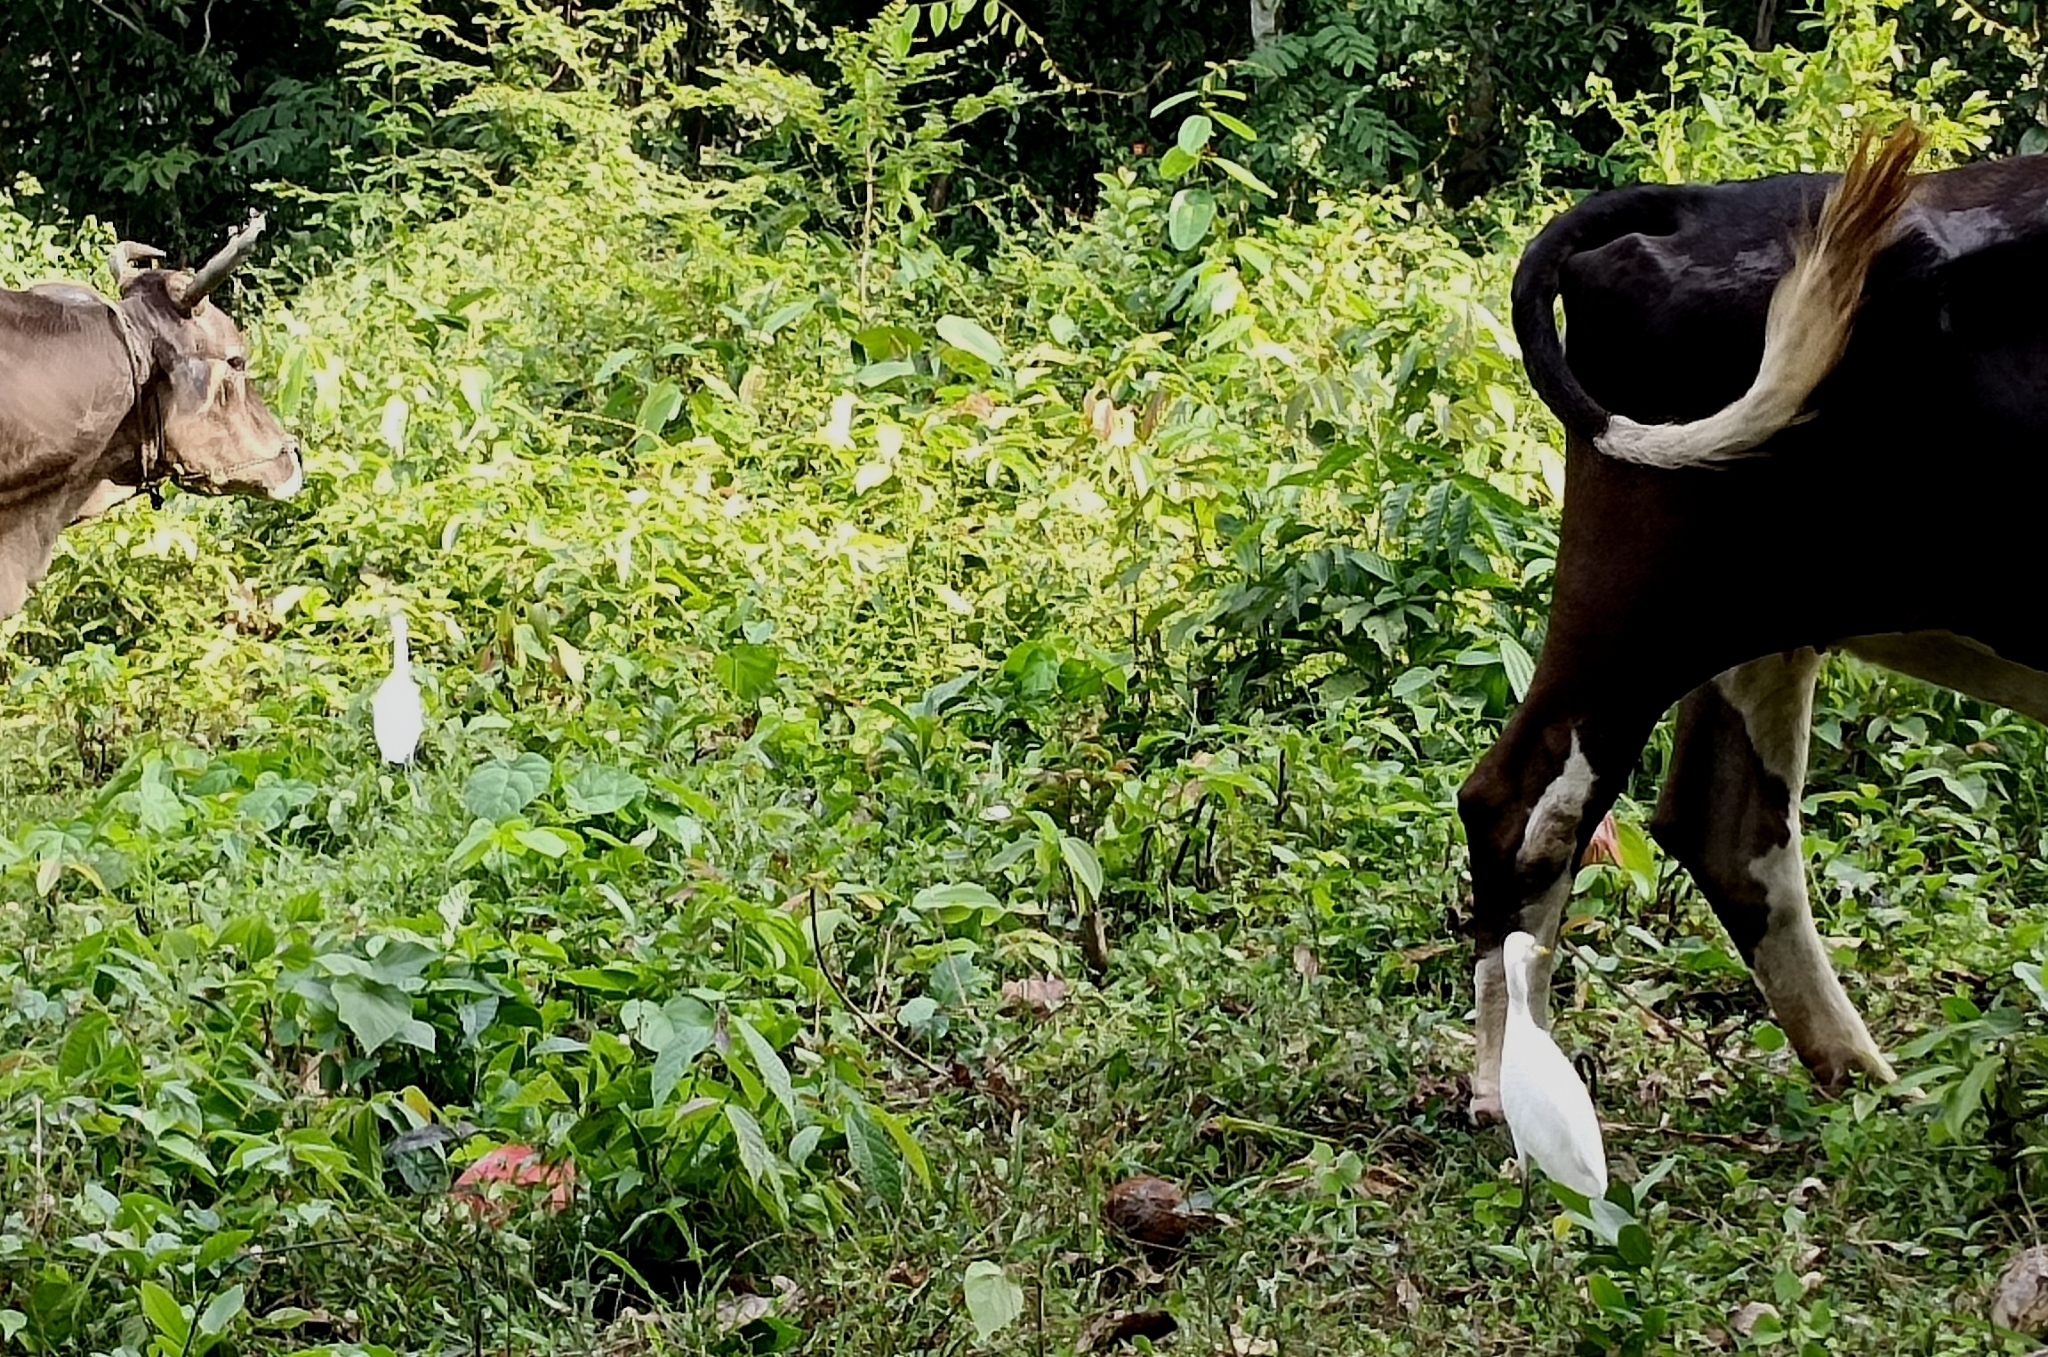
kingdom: Animalia
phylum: Chordata
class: Aves
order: Pelecaniformes
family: Ardeidae
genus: Bubulcus
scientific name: Bubulcus coromandus
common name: Eastern cattle egret
